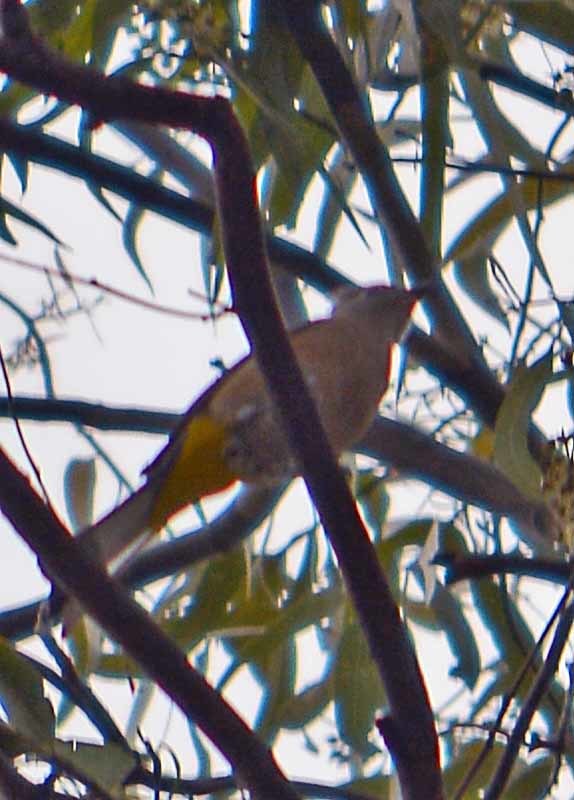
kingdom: Animalia
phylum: Chordata
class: Aves
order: Passeriformes
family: Ptilogonatidae
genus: Ptilogonys
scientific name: Ptilogonys cinereus
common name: Gray silky-flycatcher
